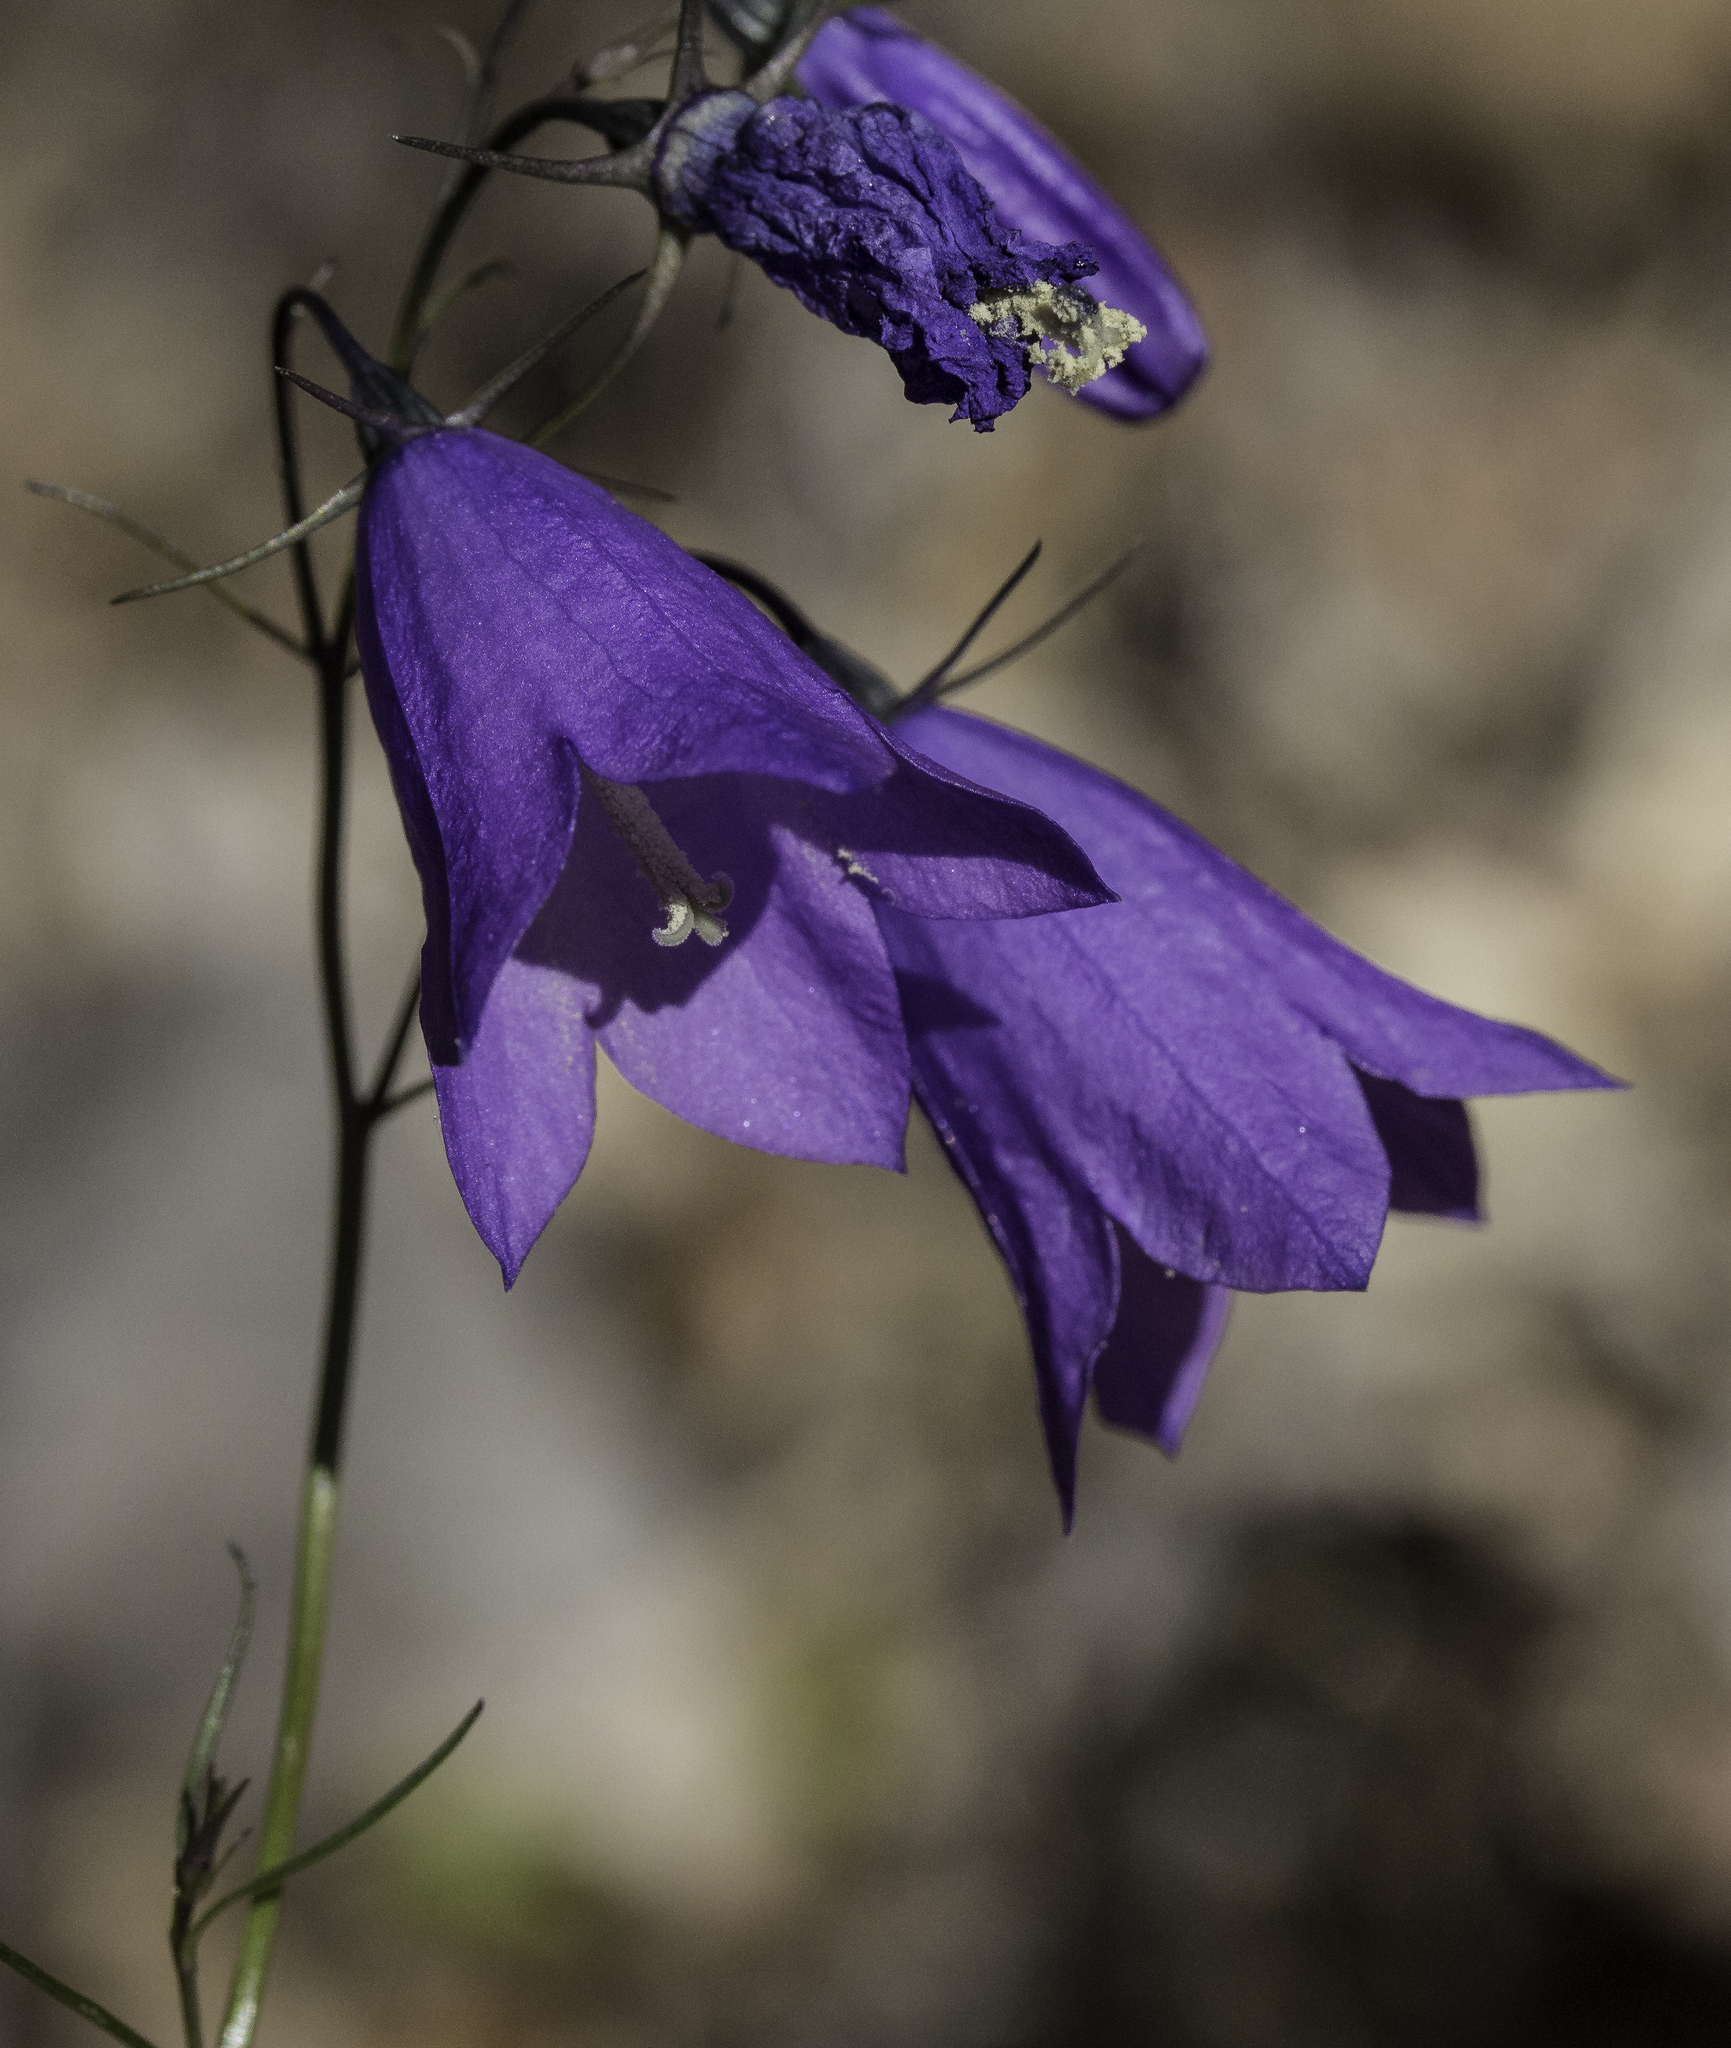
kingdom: Plantae
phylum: Tracheophyta
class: Magnoliopsida
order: Asterales
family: Campanulaceae
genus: Campanula
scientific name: Campanula petiolata
